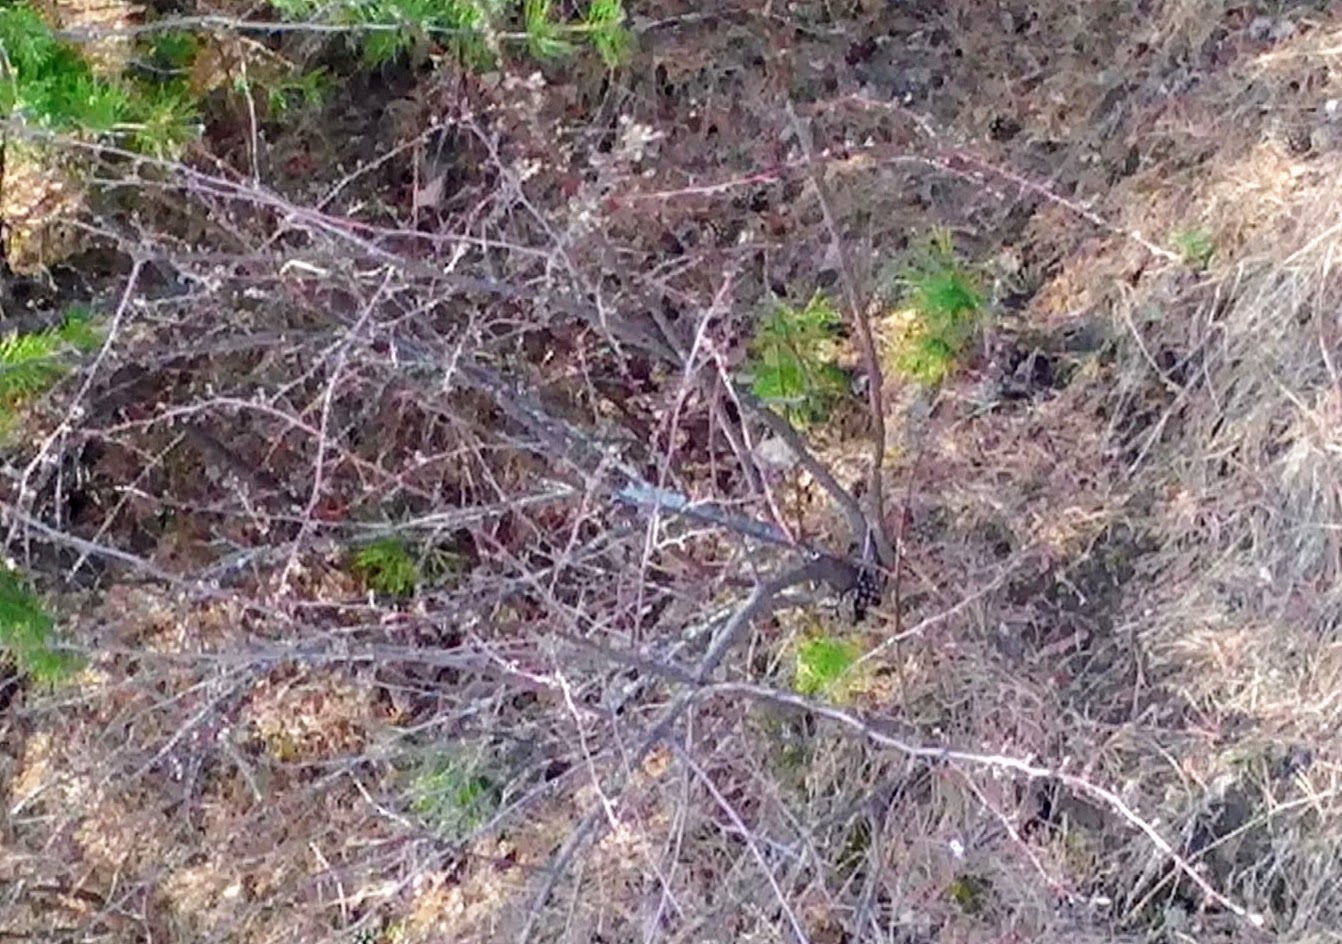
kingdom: Plantae
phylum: Tracheophyta
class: Magnoliopsida
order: Rosales
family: Rosaceae
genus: Cotoneaster
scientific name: Cotoneaster melanocarpus
